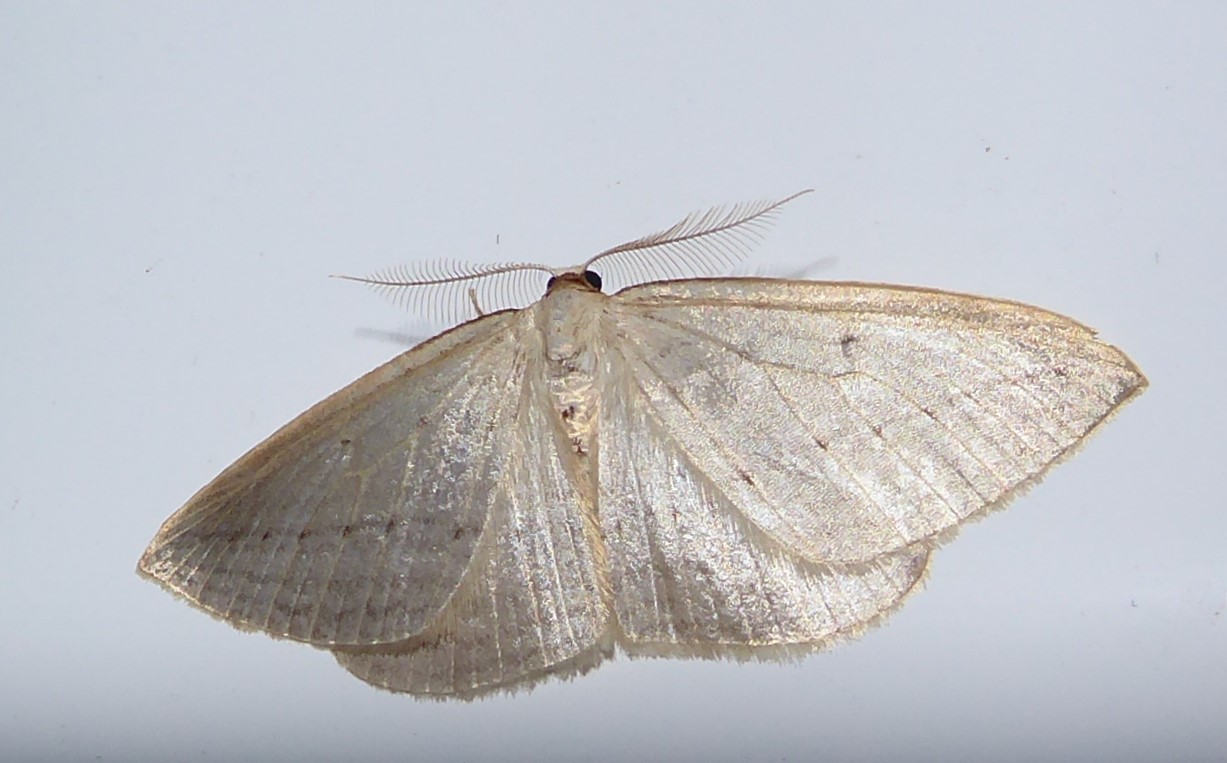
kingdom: Animalia
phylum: Arthropoda
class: Insecta
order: Lepidoptera
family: Geometridae
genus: Orthoclydon
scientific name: Orthoclydon praefectata
